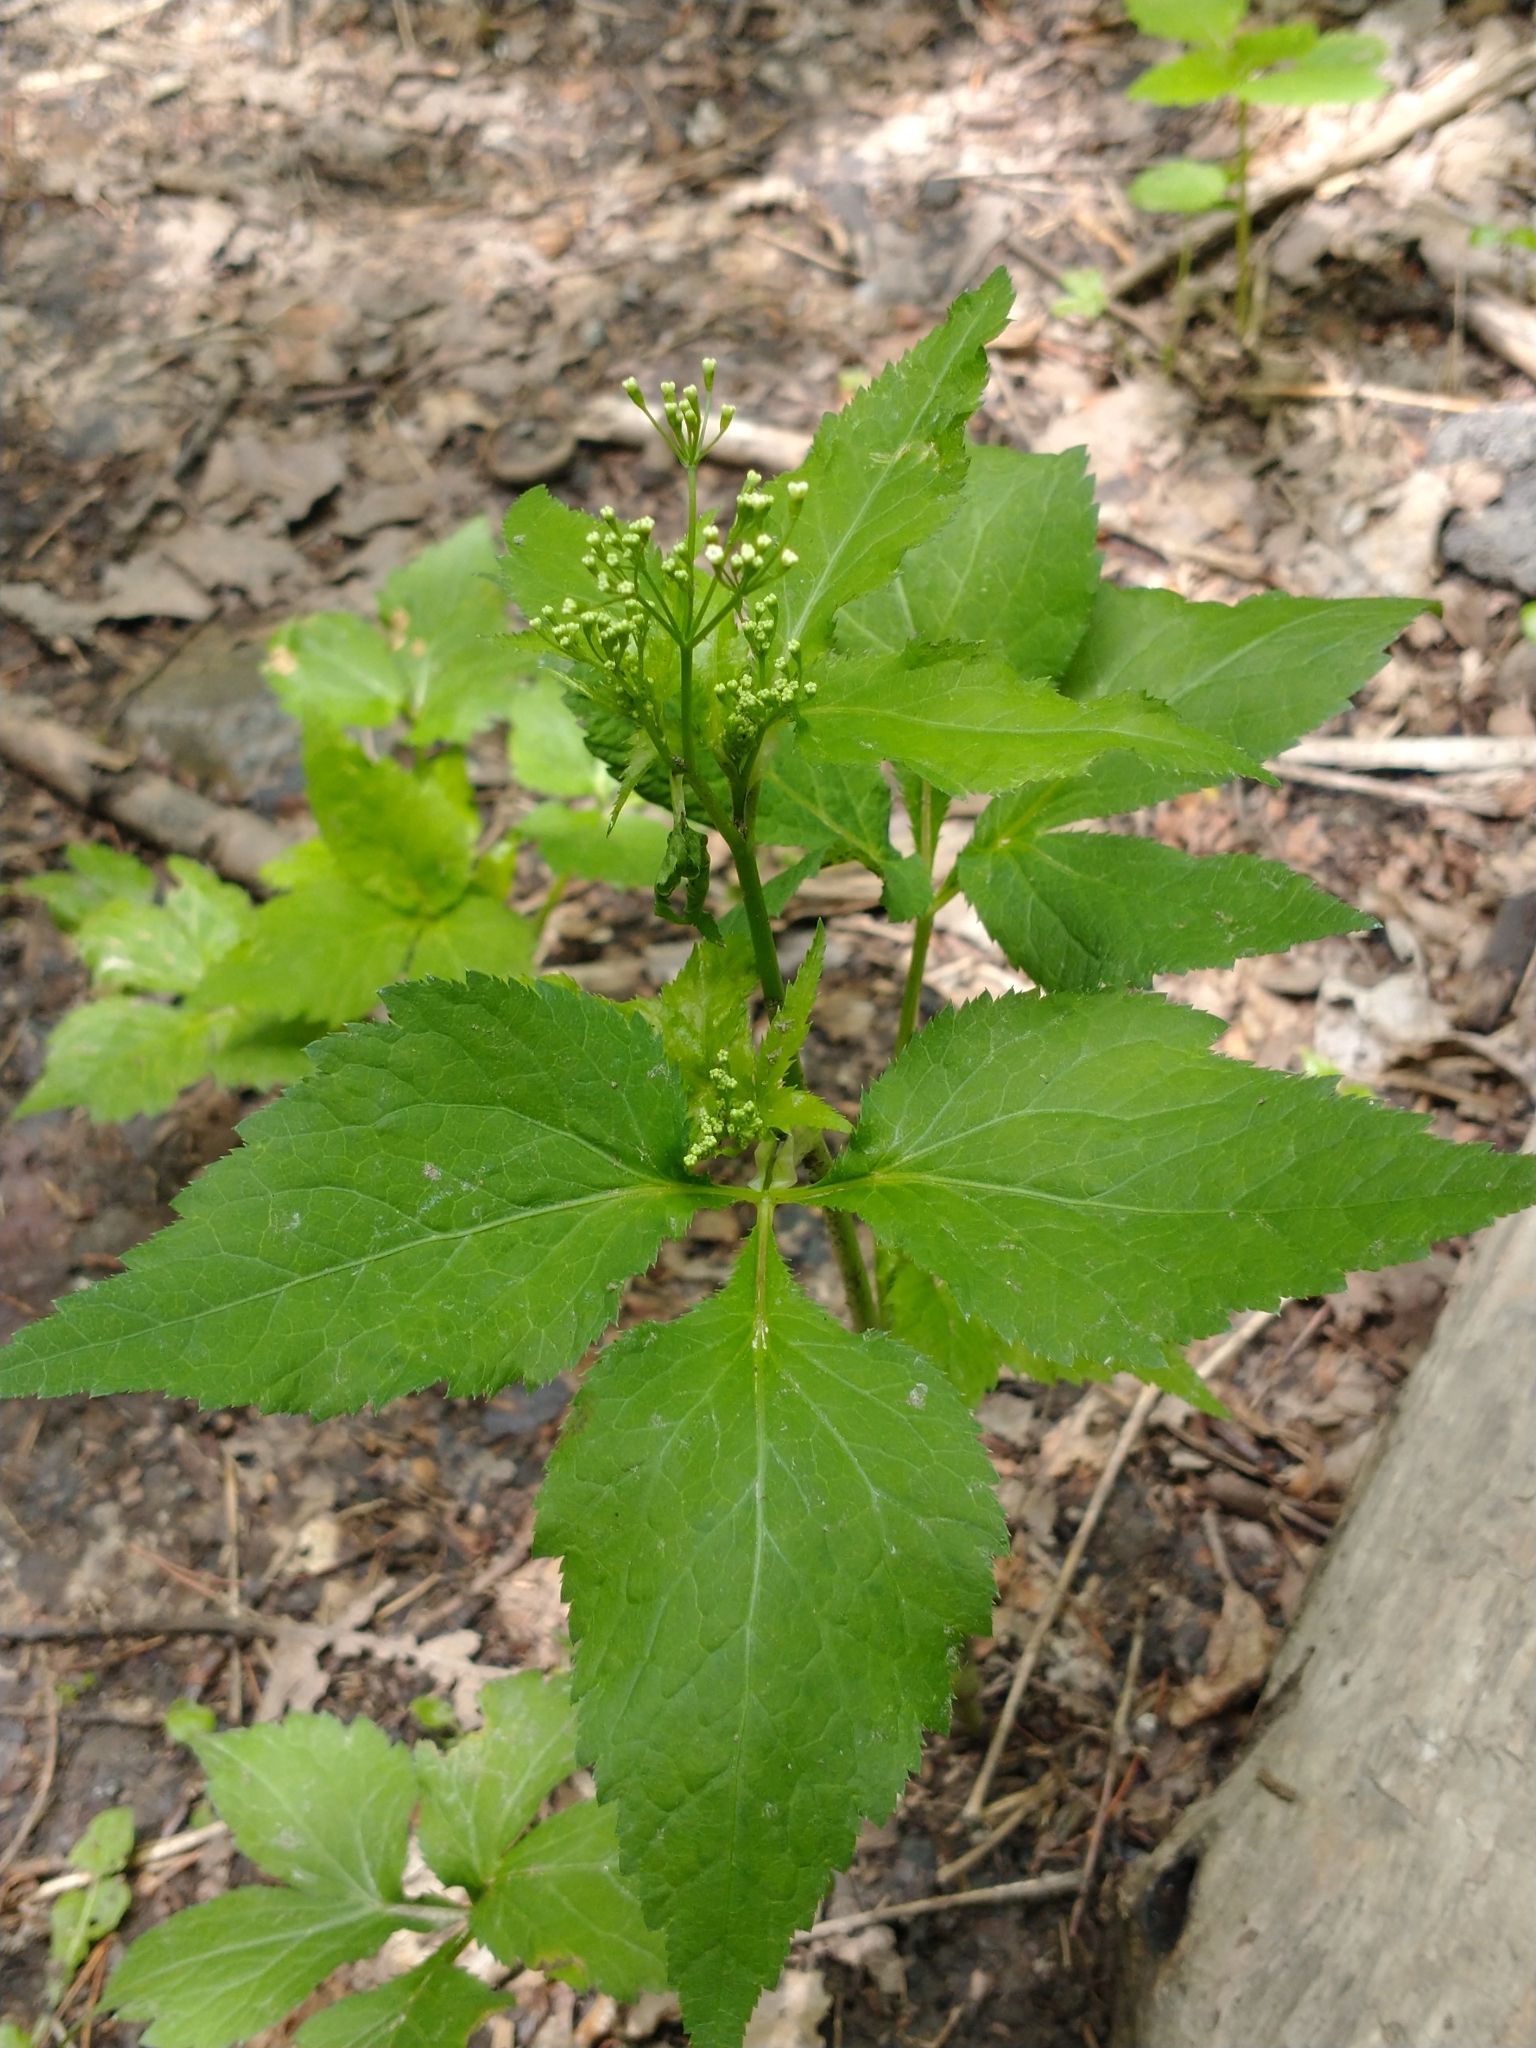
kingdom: Plantae
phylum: Tracheophyta
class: Magnoliopsida
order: Apiales
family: Apiaceae
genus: Cryptotaenia
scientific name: Cryptotaenia canadensis
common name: Honewort
